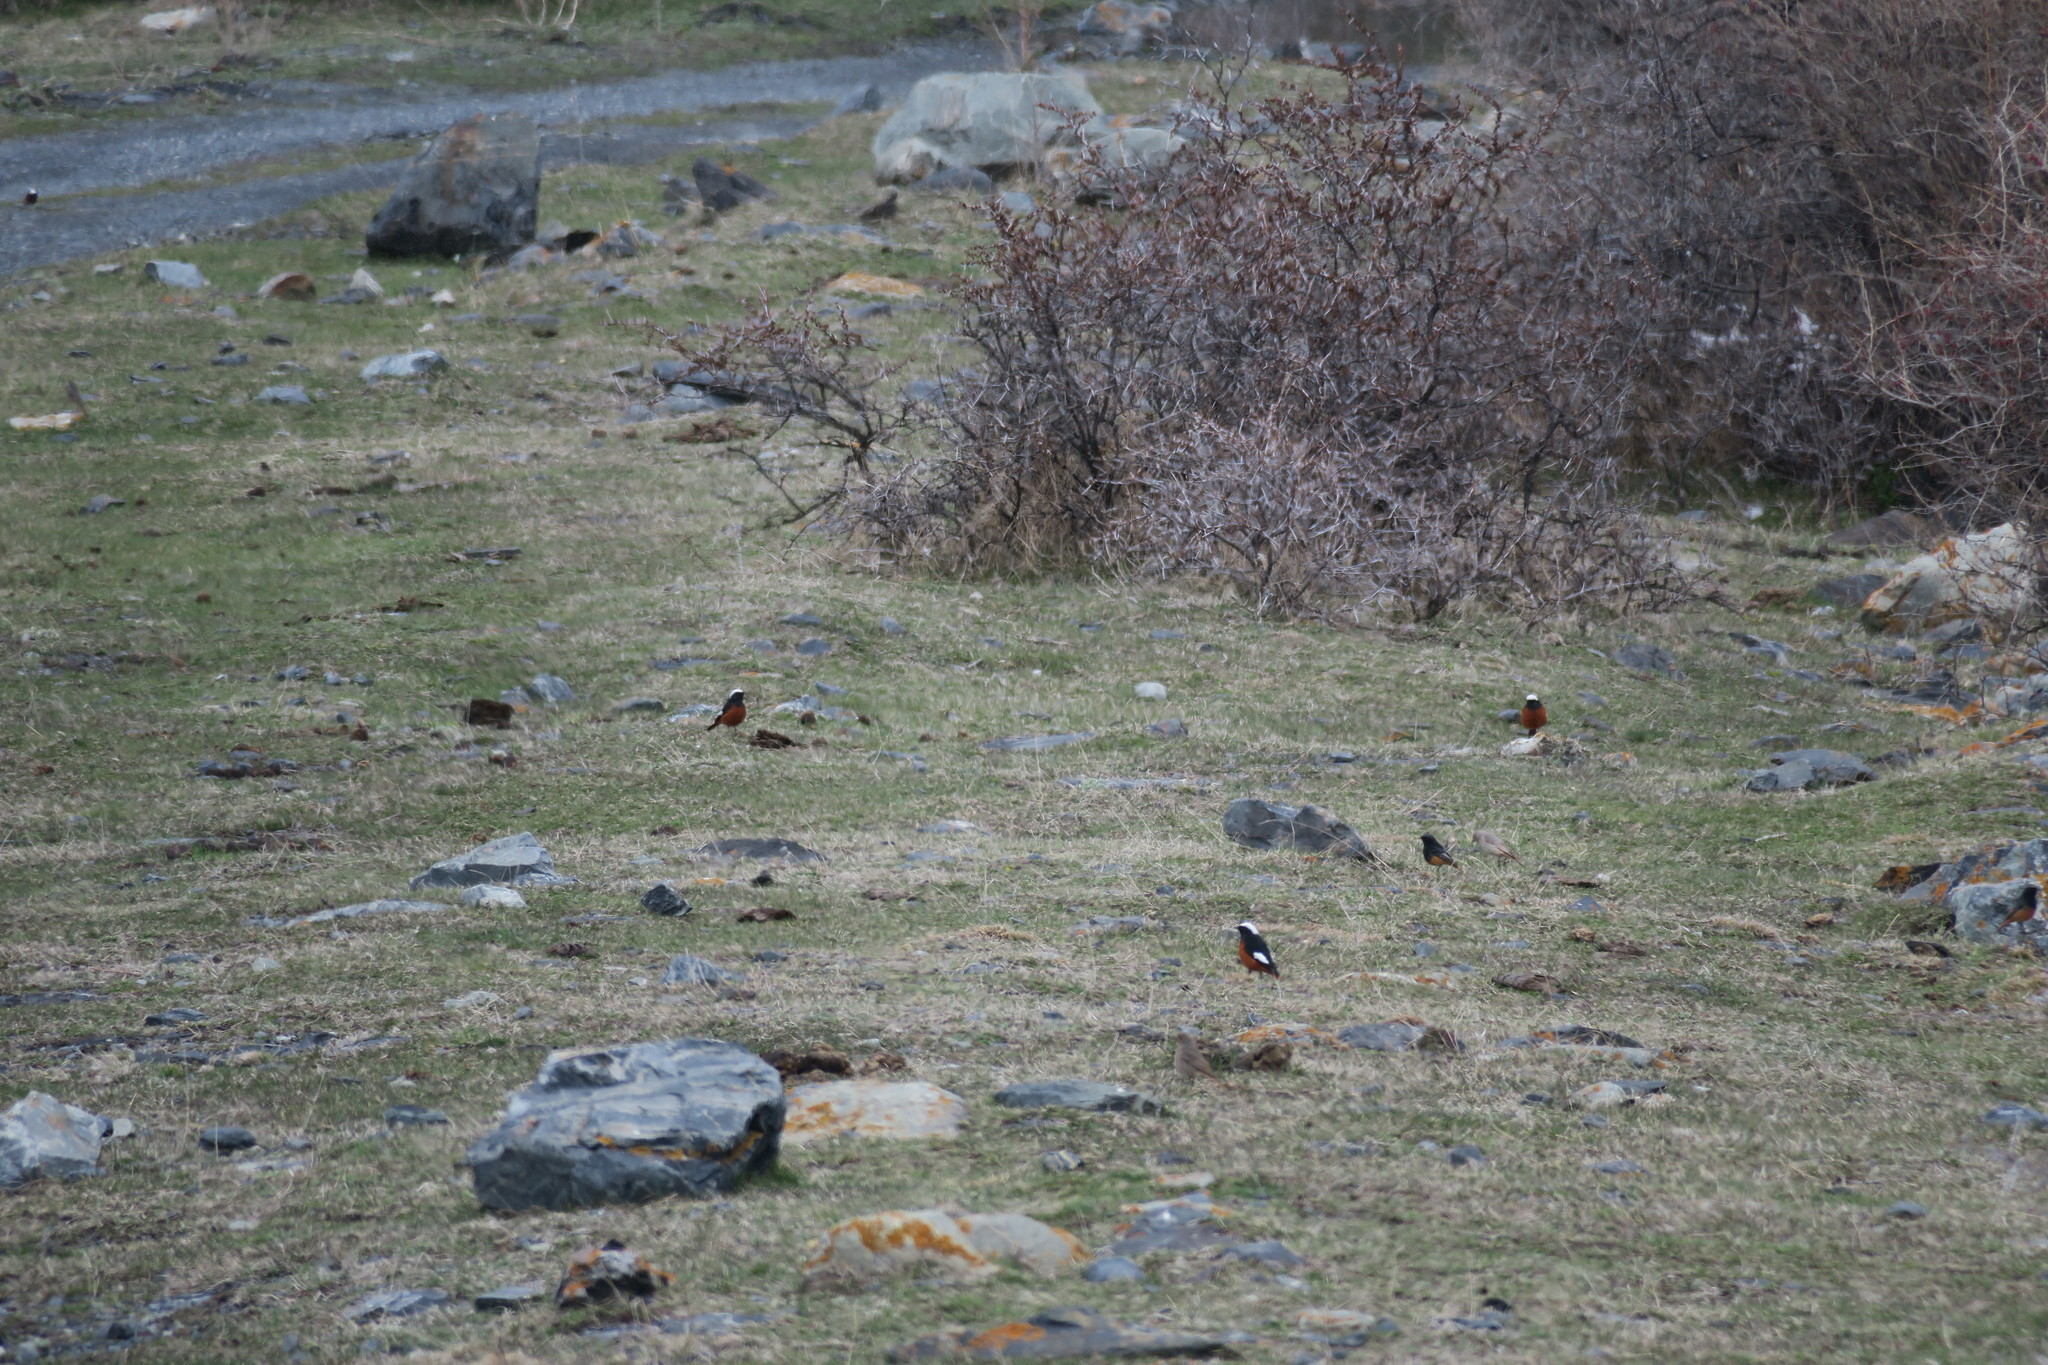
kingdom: Animalia
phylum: Chordata
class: Aves
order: Passeriformes
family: Muscicapidae
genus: Phoenicurus
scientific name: Phoenicurus erythrogastrus
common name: Güldenstädt's redstart
